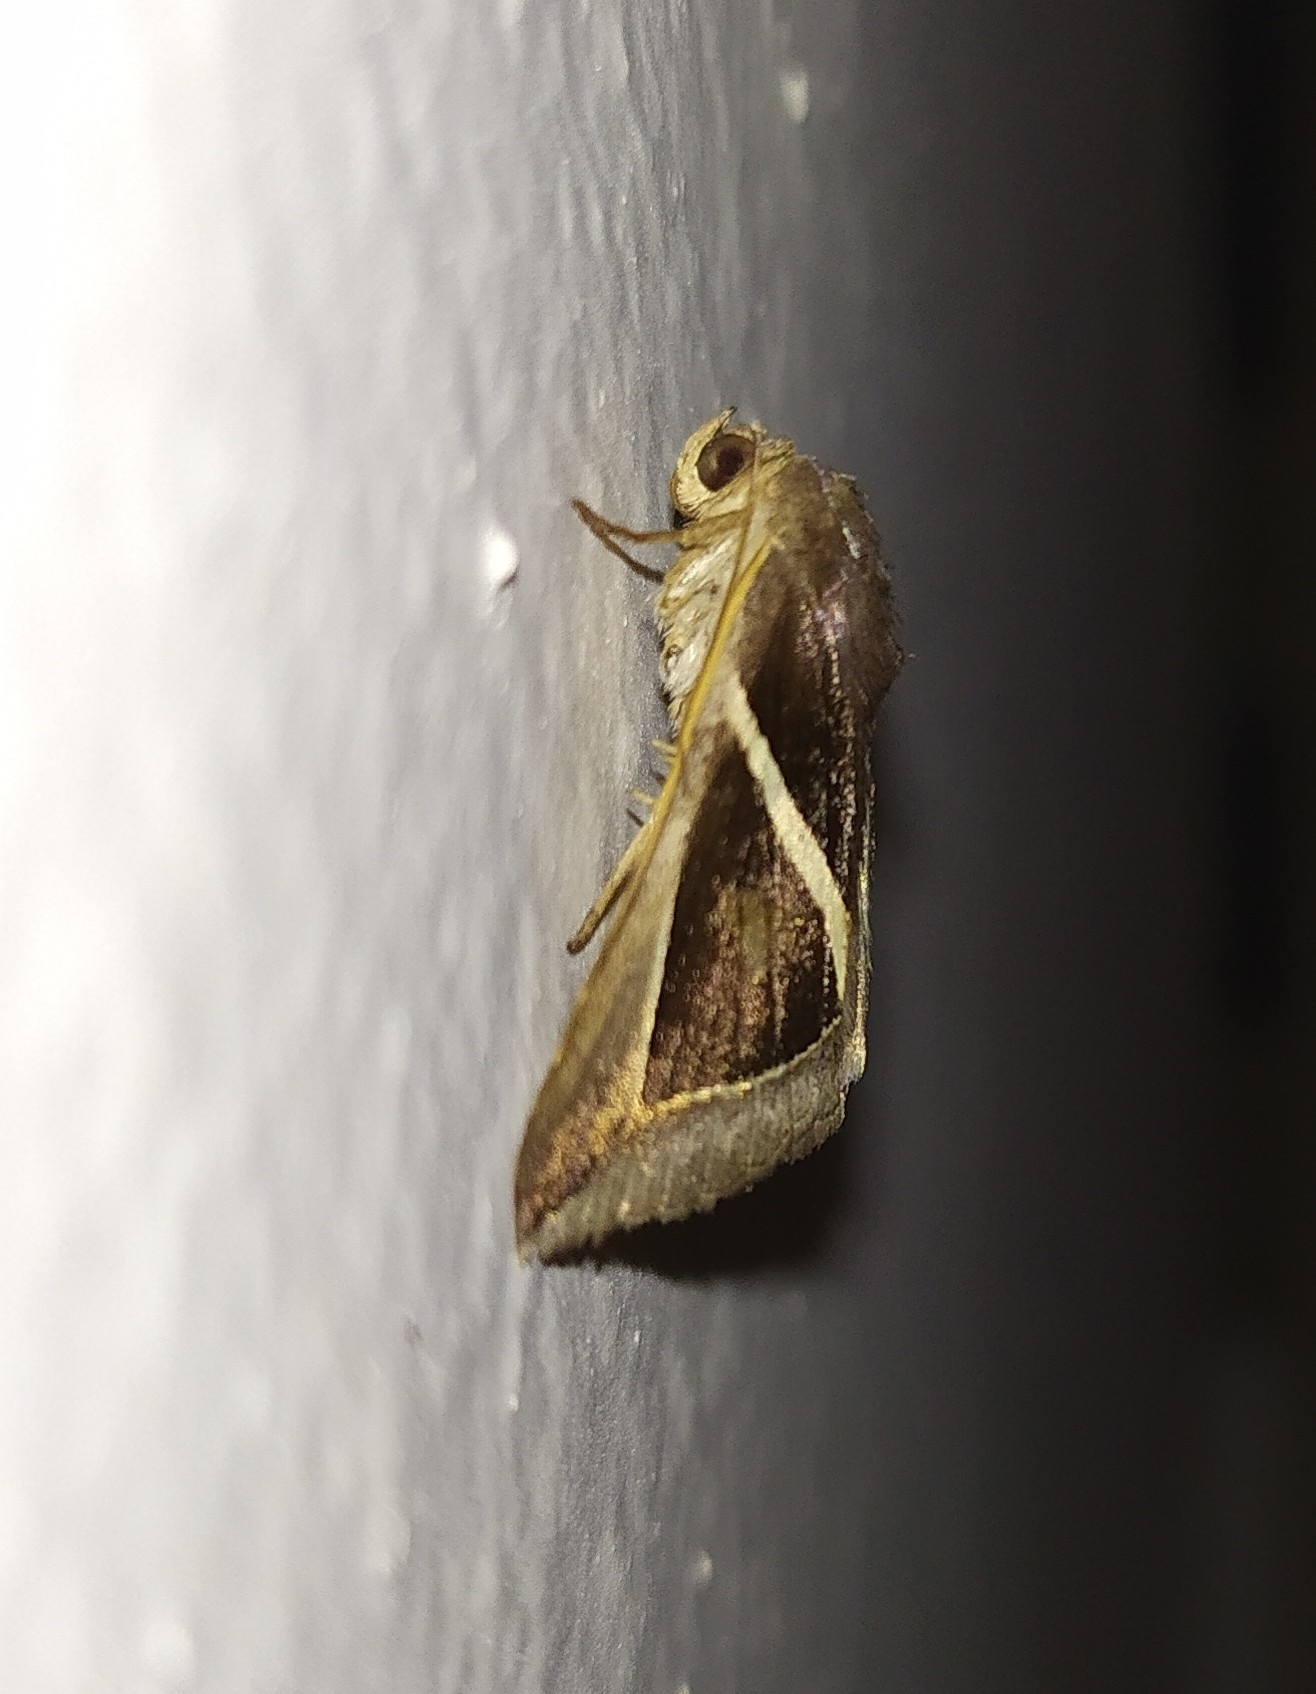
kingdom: Animalia
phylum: Arthropoda
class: Insecta
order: Lepidoptera
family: Erebidae
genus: Chalciope
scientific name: Chalciope mygdon
